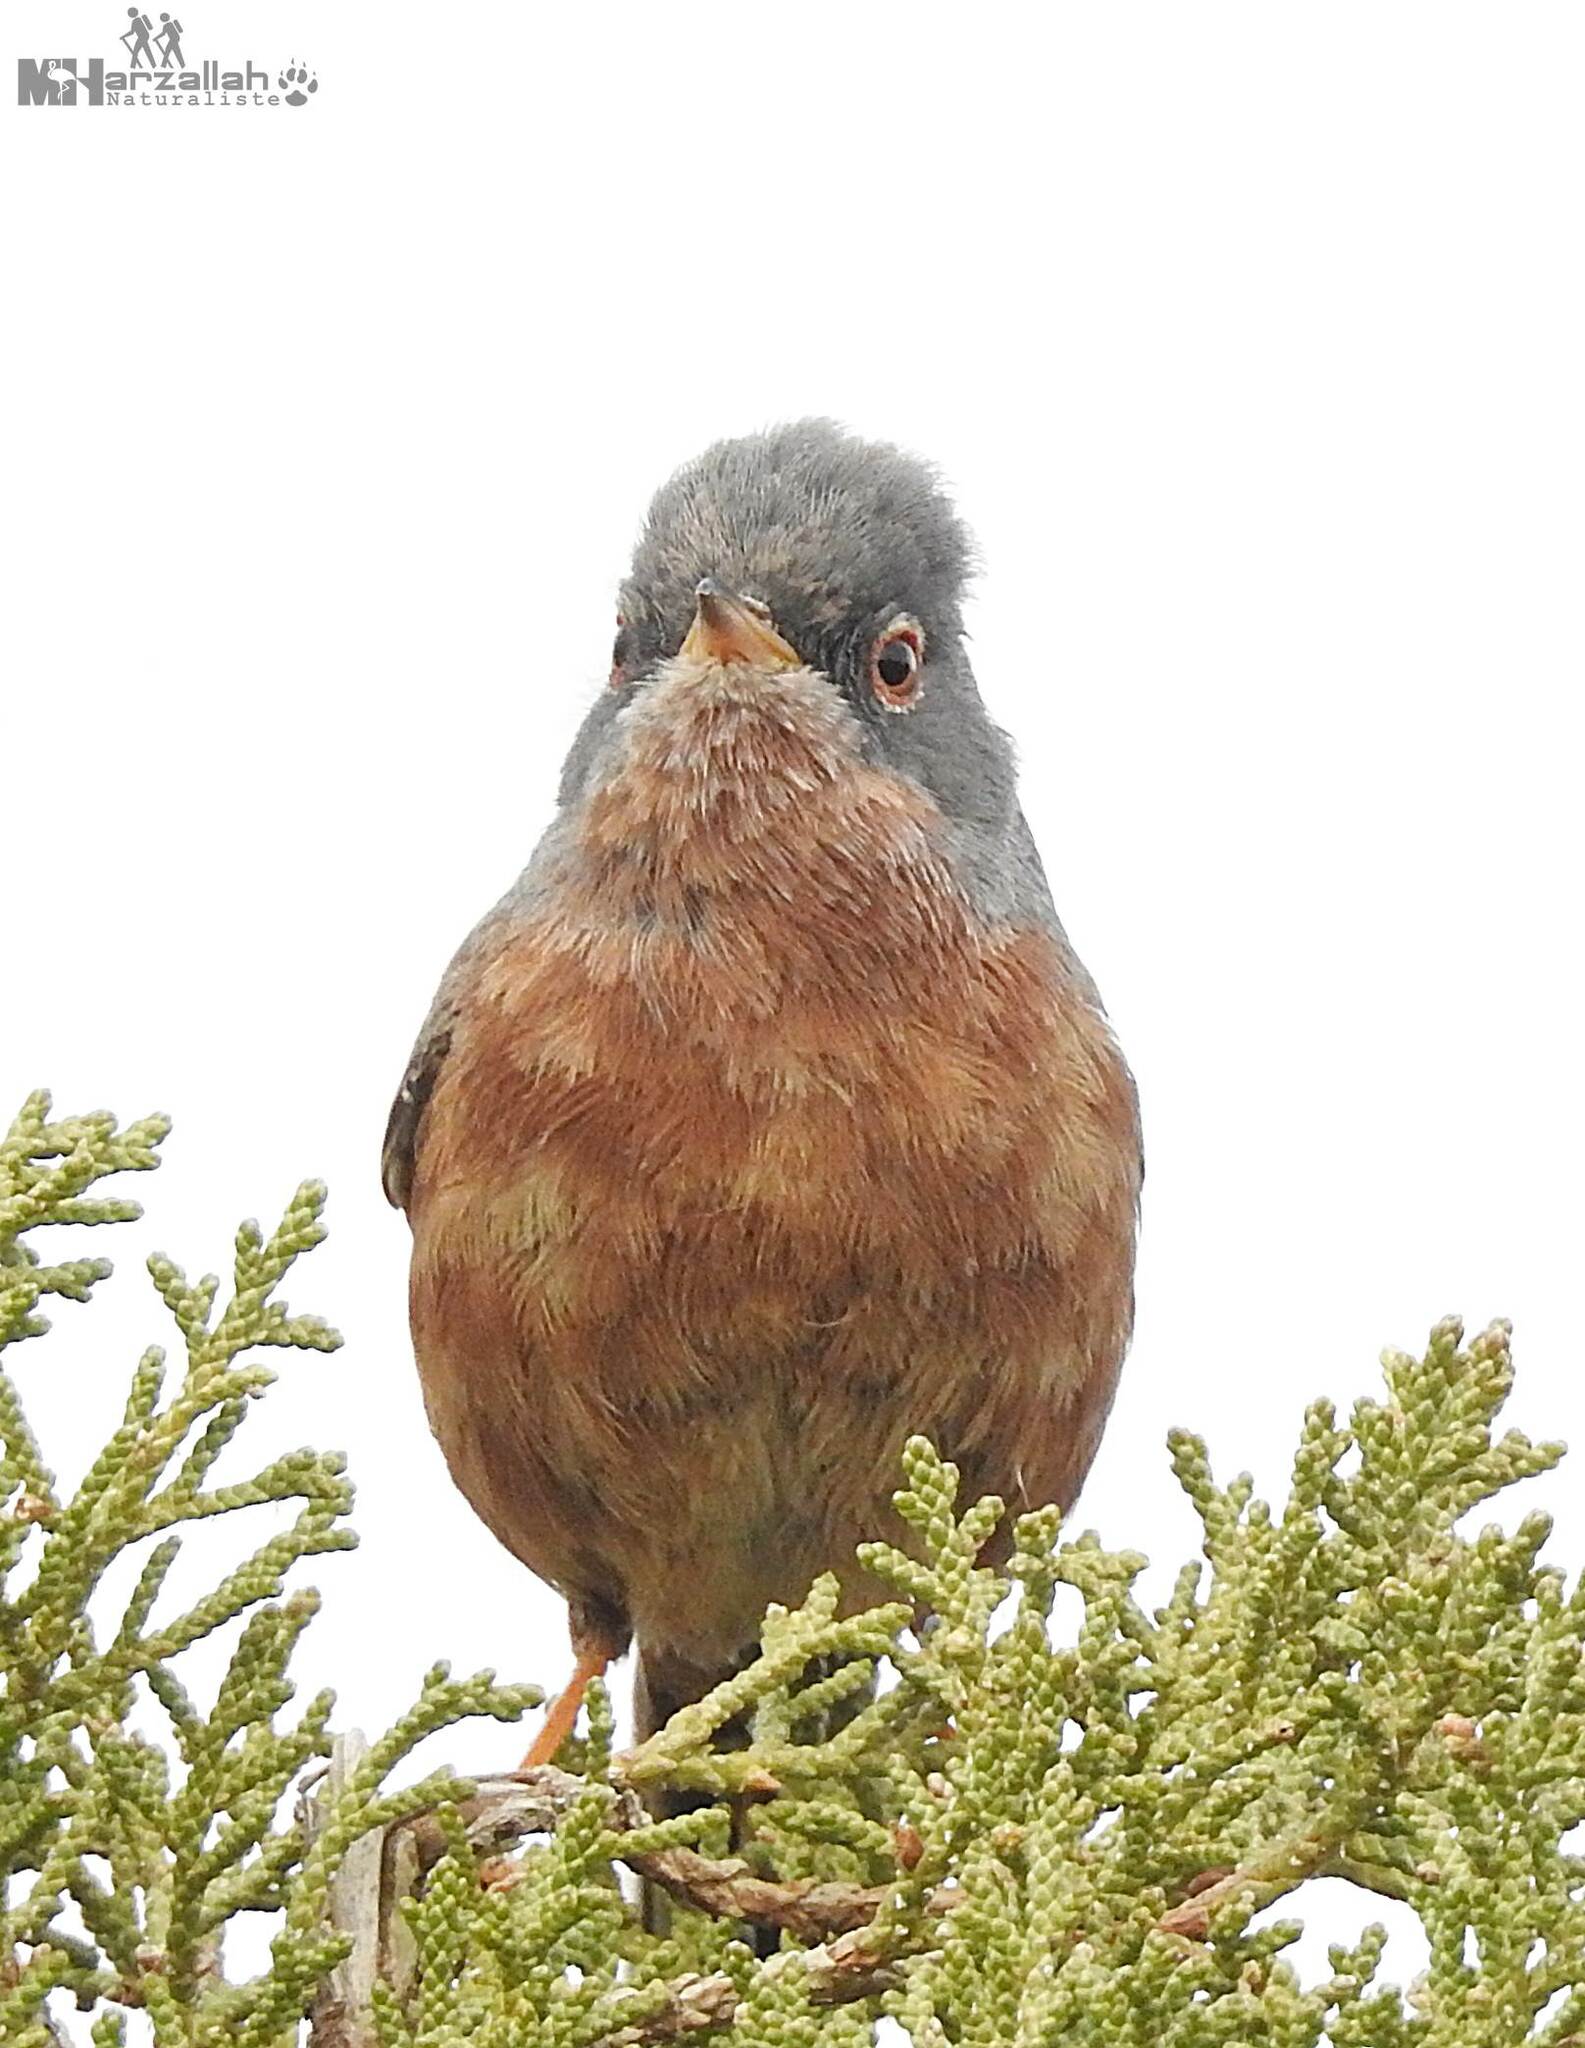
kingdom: Animalia
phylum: Chordata
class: Aves
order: Passeriformes
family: Sylviidae
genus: Sylvia
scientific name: Sylvia deserticola
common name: Tristram's warbler
